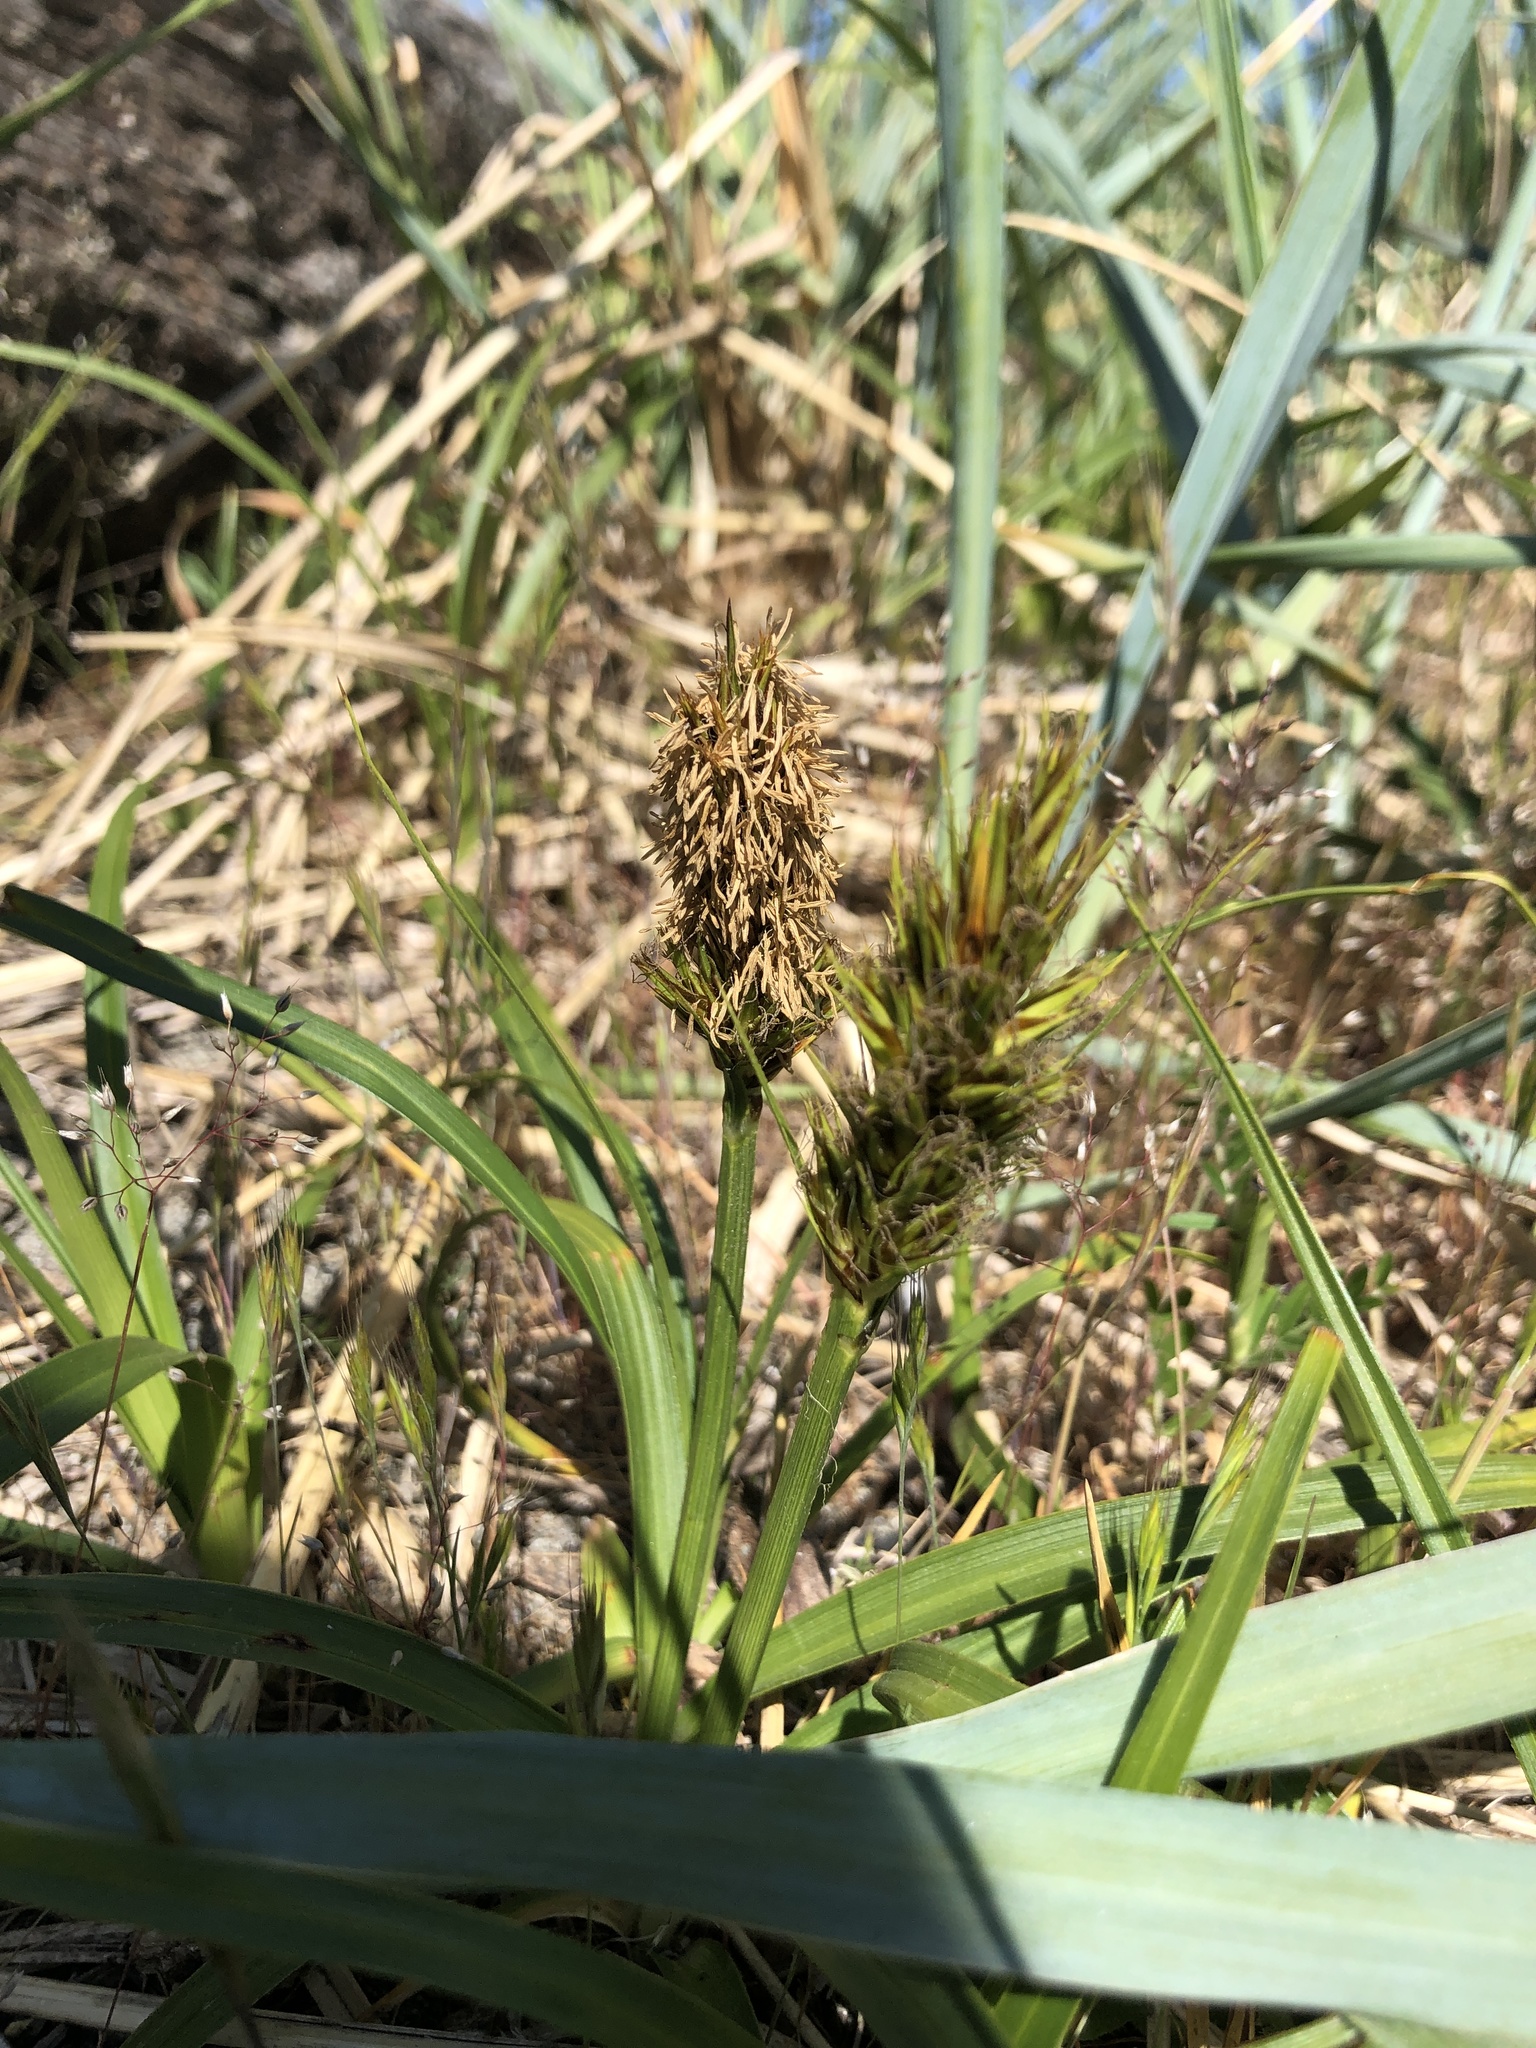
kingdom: Plantae
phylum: Tracheophyta
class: Liliopsida
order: Poales
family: Cyperaceae
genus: Carex
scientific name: Carex macrocephala
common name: Large-head sedge
